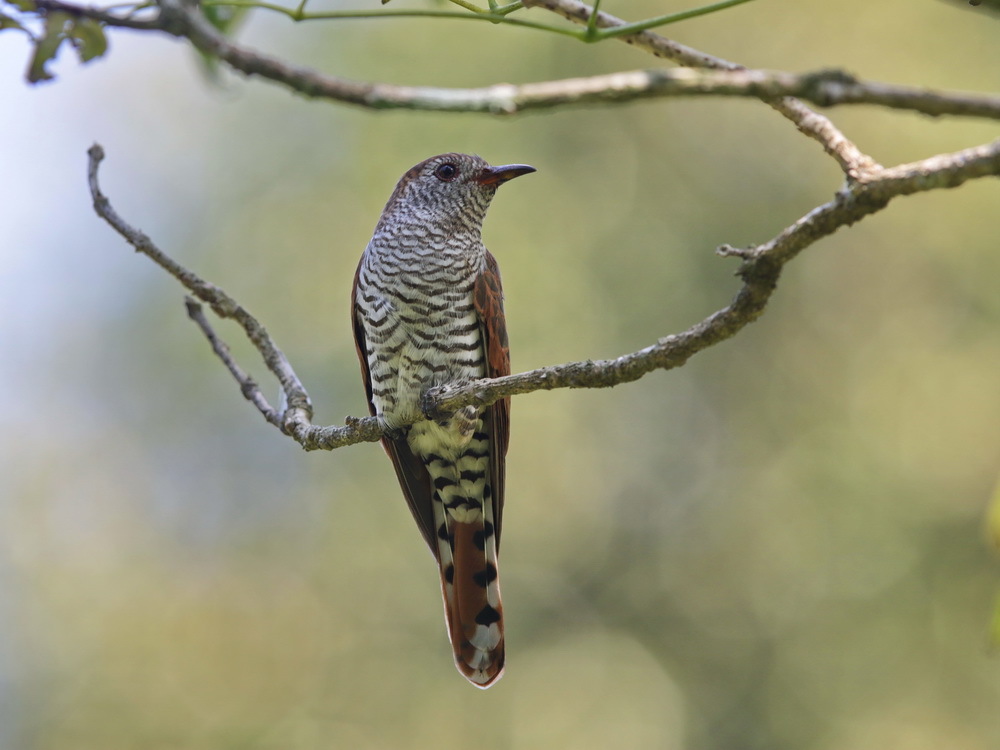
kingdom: Animalia
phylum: Chordata
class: Aves
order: Cuculiformes
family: Cuculidae
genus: Chrysococcyx
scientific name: Chrysococcyx xanthorhynchus
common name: Violet cuckoo
